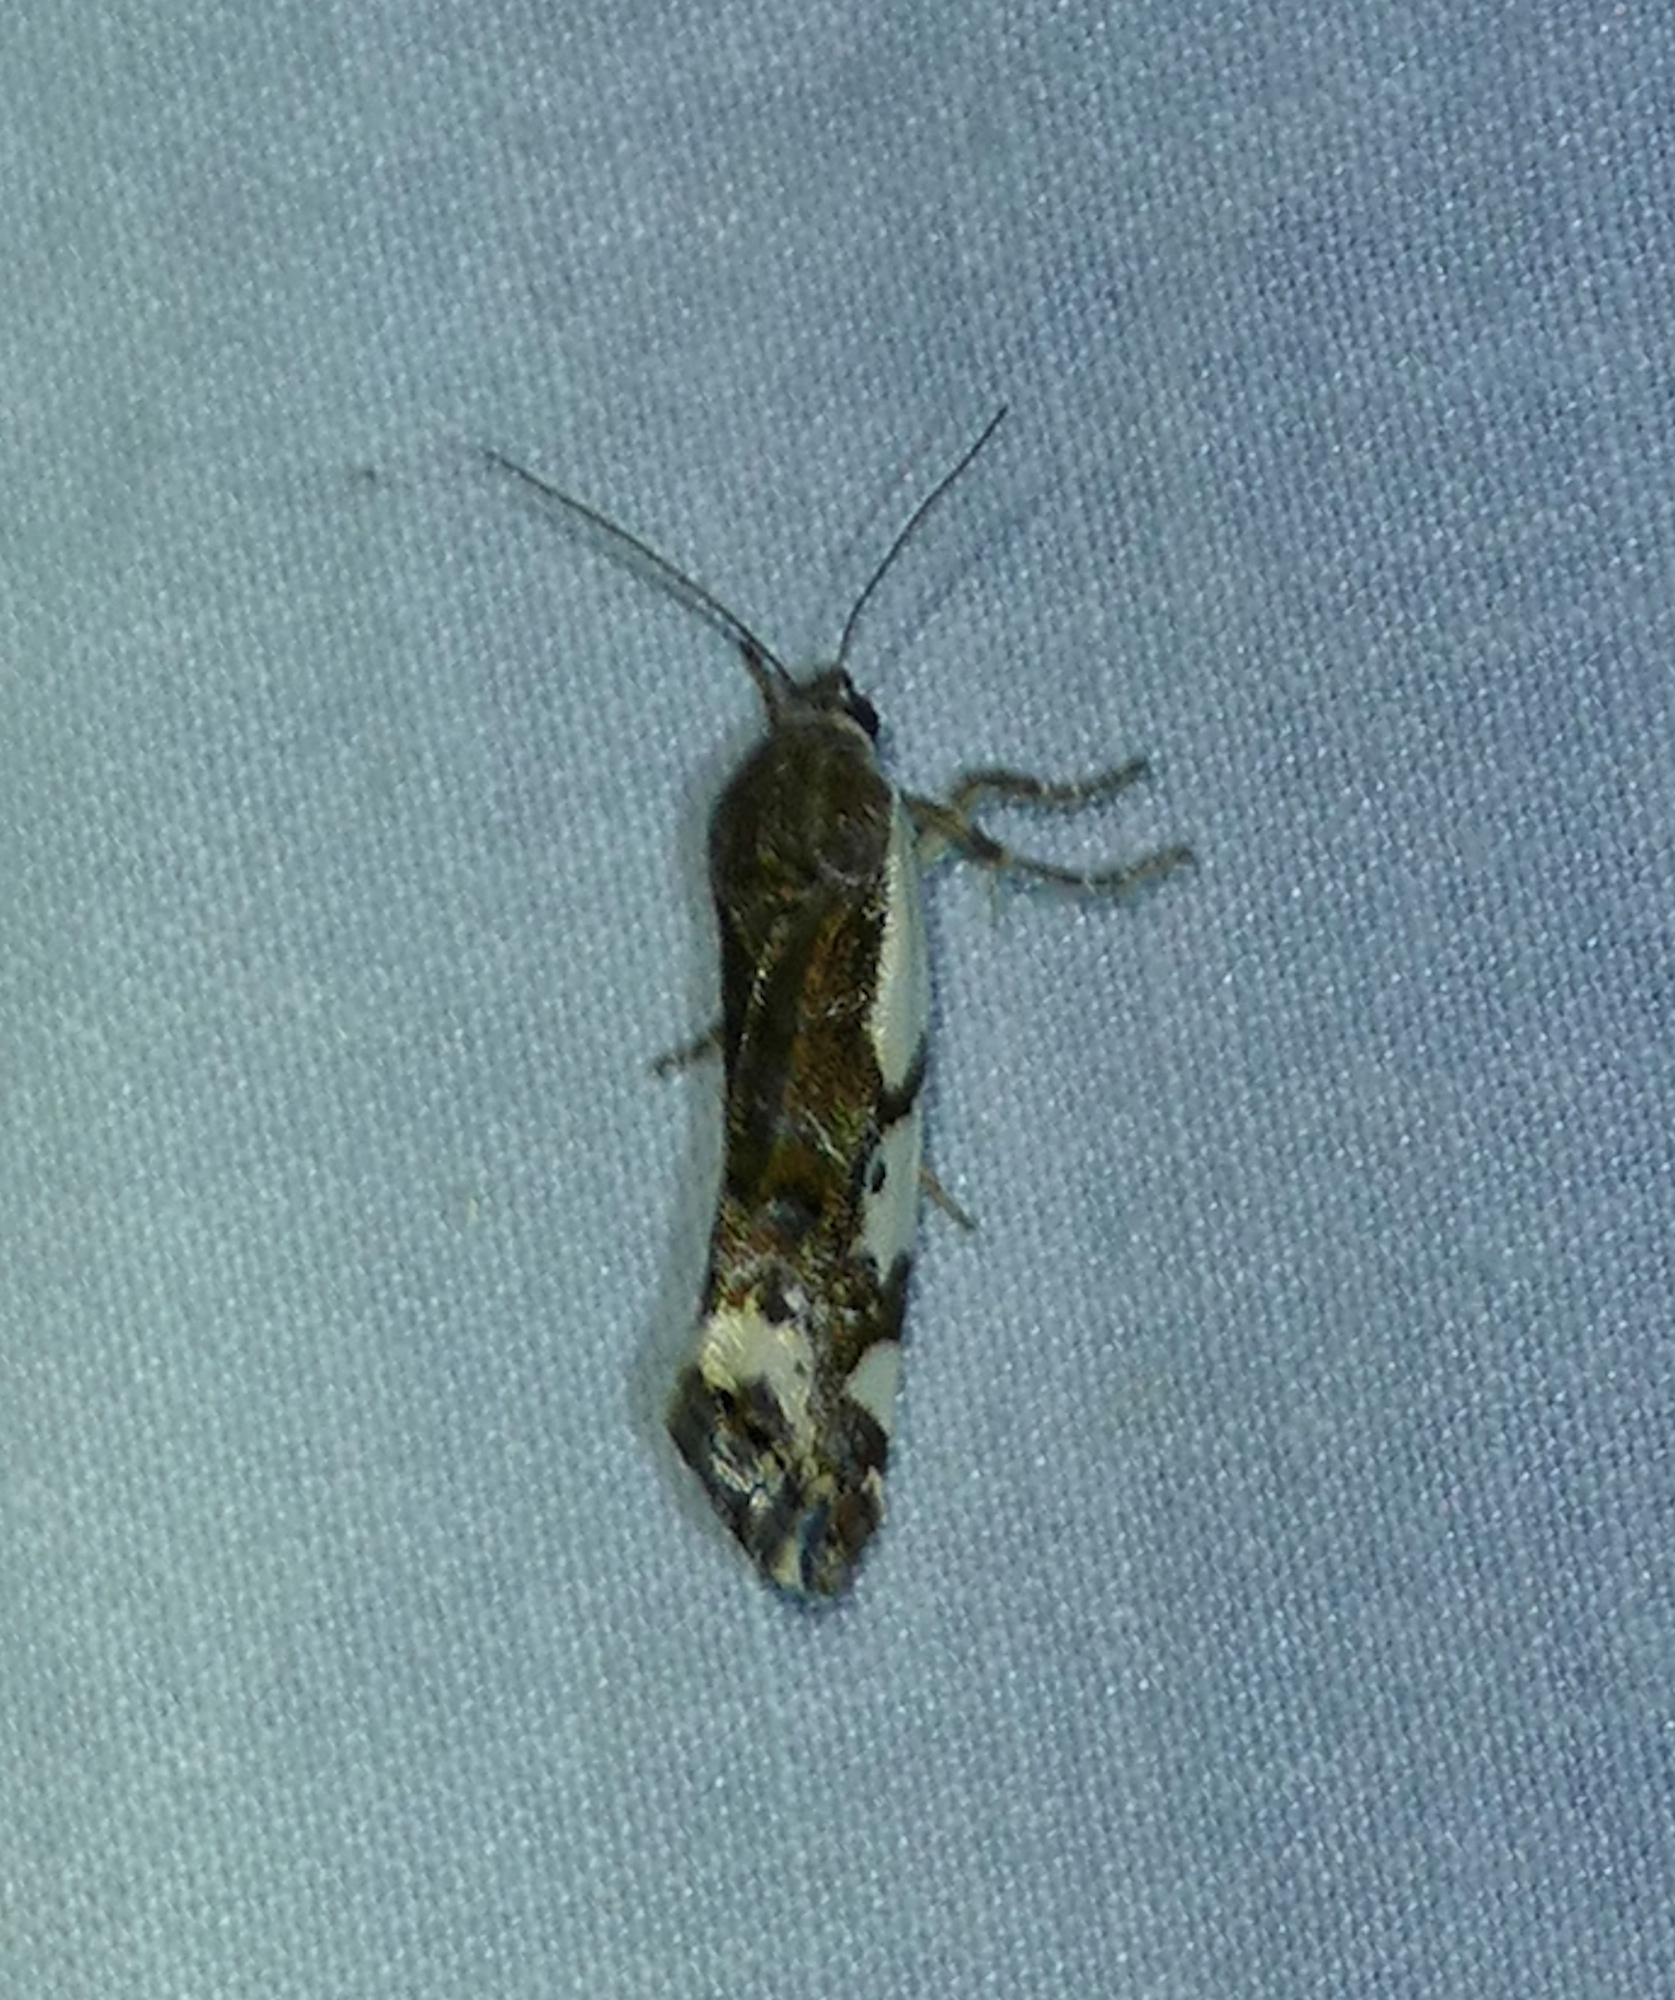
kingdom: Animalia
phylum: Arthropoda
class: Insecta
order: Lepidoptera
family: Noctuidae
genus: Acontia
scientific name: Acontia huachuca
